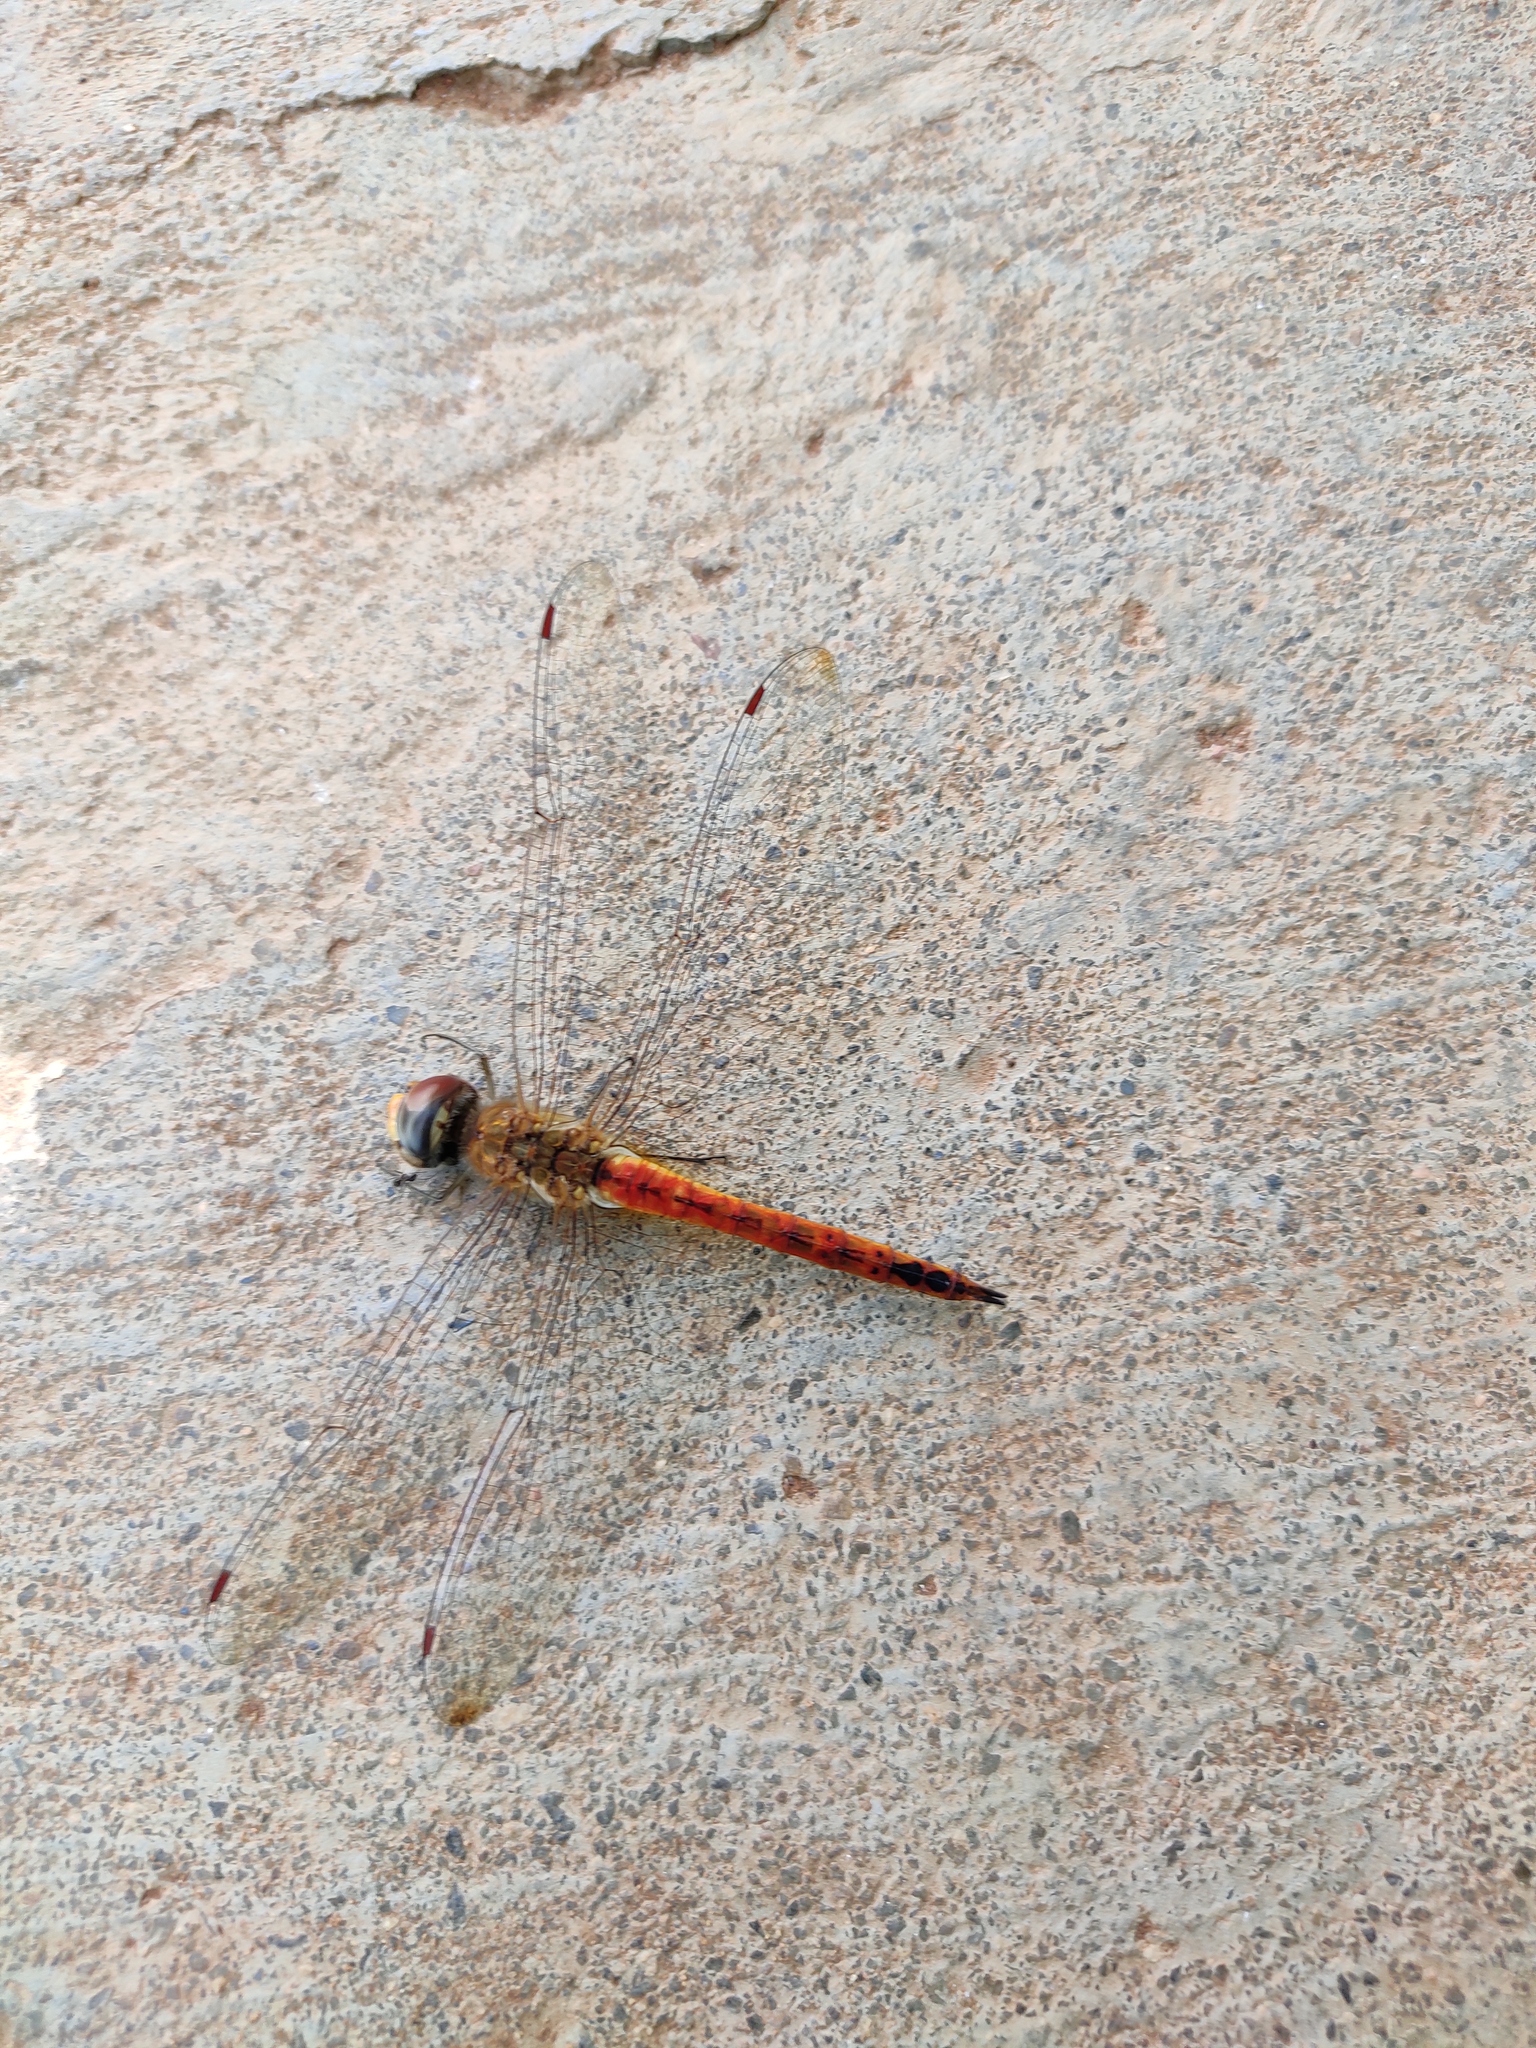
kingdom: Animalia
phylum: Arthropoda
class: Insecta
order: Odonata
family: Libellulidae
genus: Pantala
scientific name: Pantala flavescens
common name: Wandering glider
